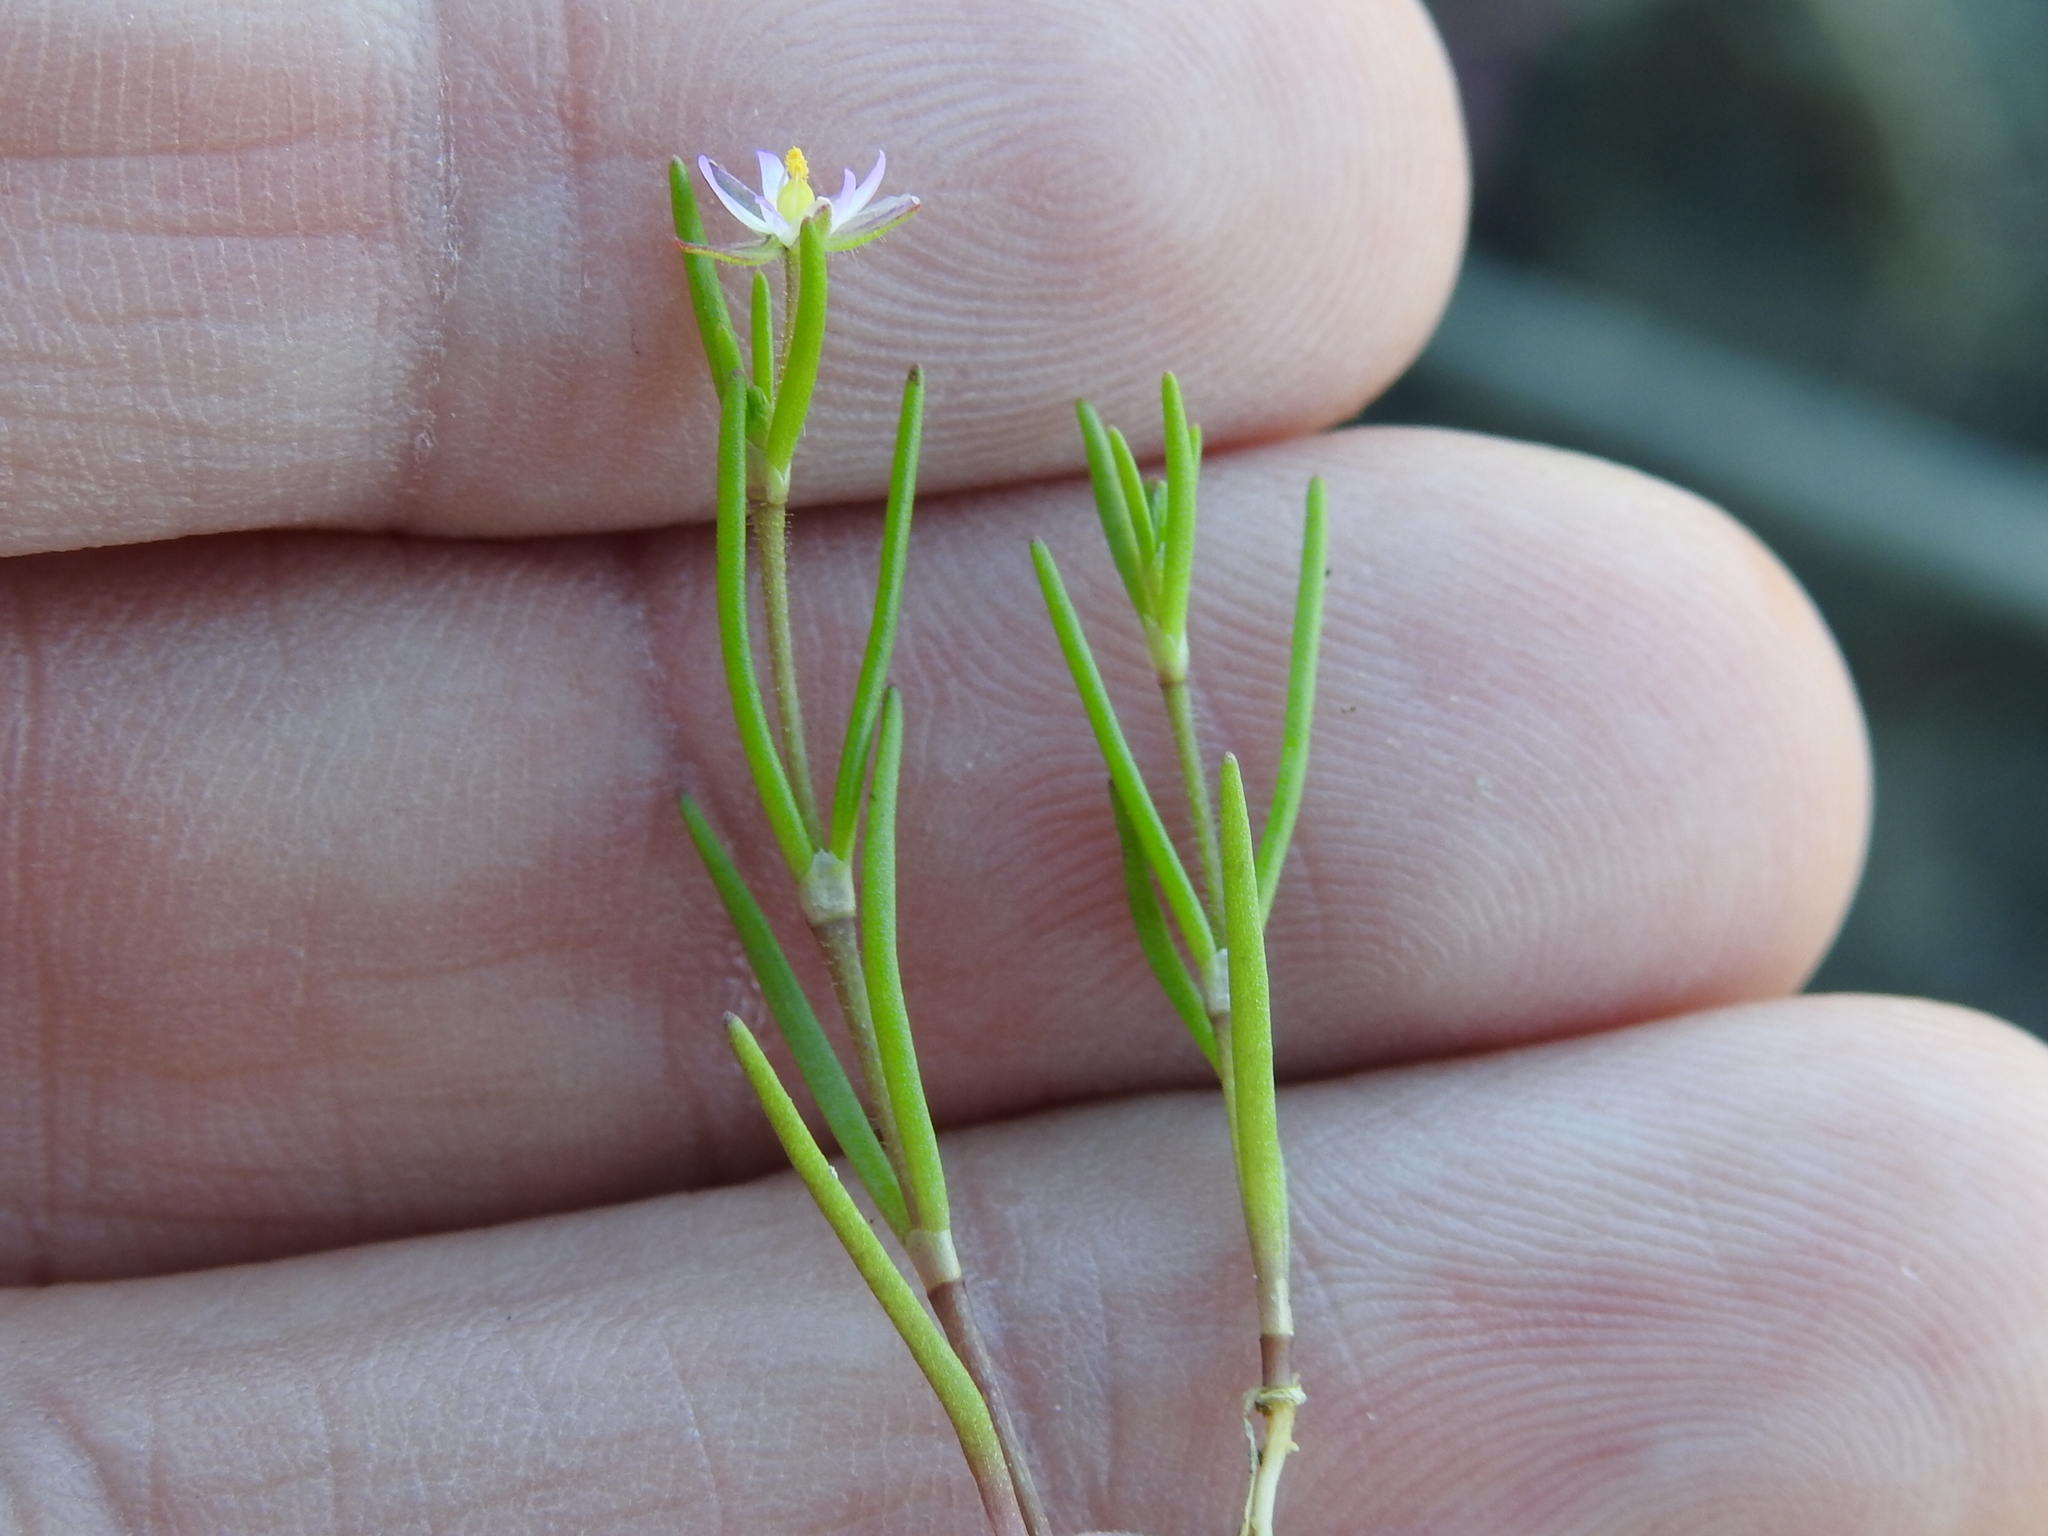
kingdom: Plantae
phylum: Tracheophyta
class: Magnoliopsida
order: Caryophyllales
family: Caryophyllaceae
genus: Spergularia
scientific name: Spergularia marina
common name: Lesser sea-spurrey
